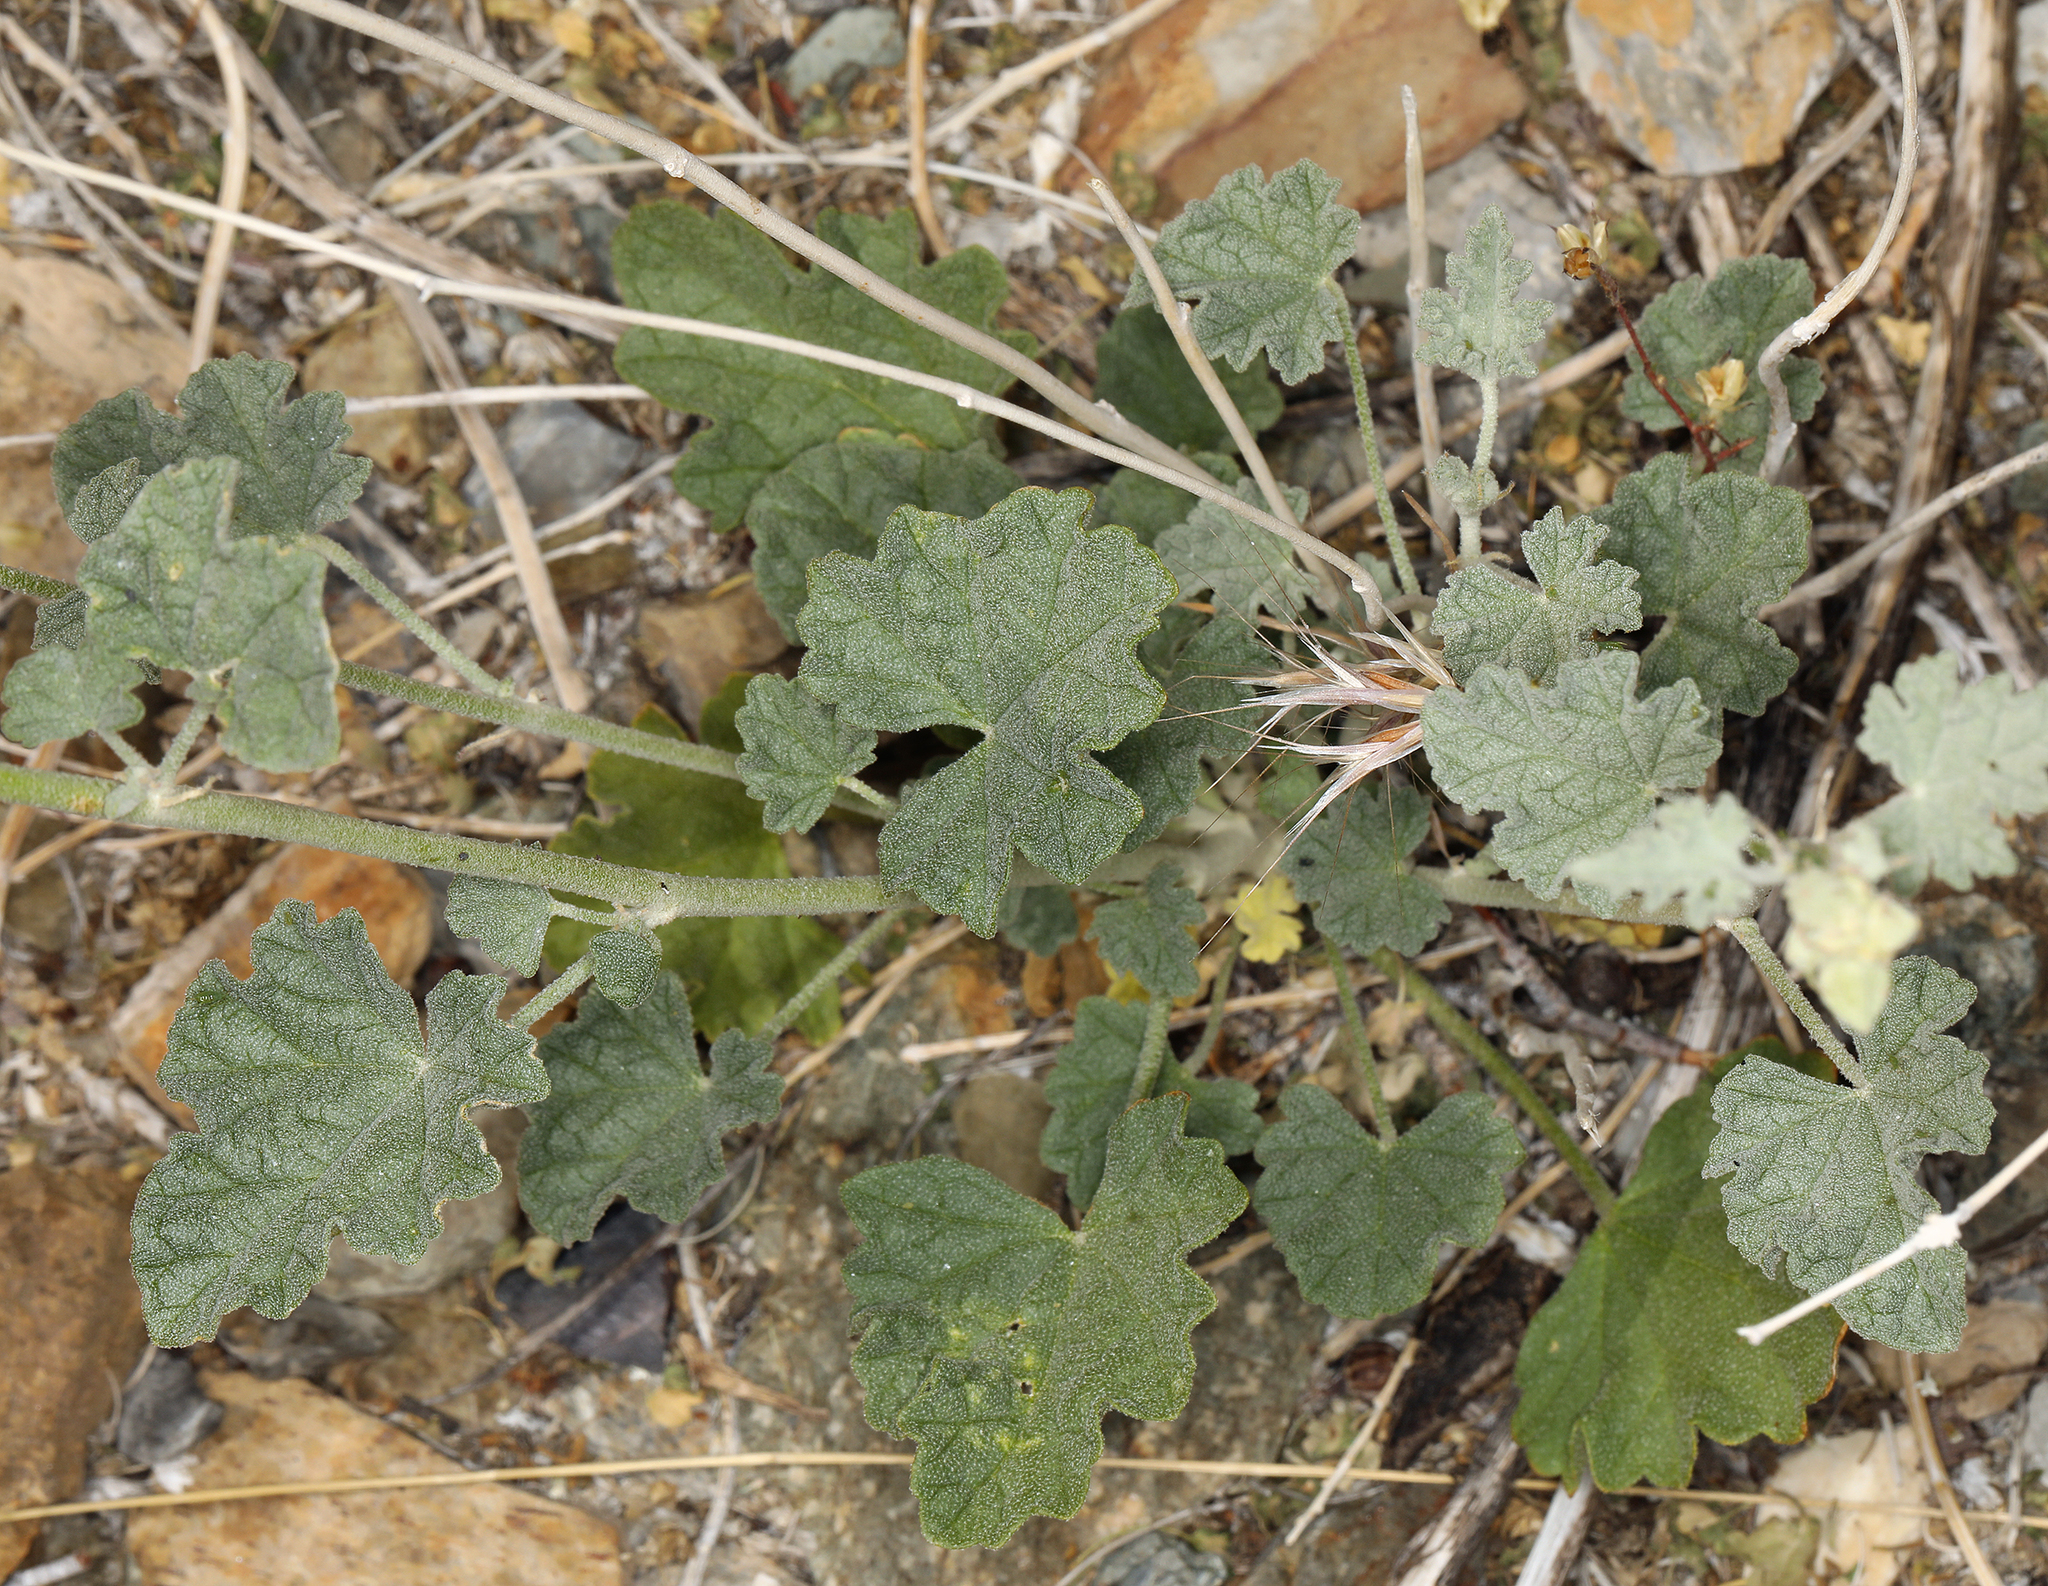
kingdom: Plantae
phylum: Tracheophyta
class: Magnoliopsida
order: Malvales
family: Malvaceae
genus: Sphaeralcea
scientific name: Sphaeralcea ambigua
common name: Apricot globe-mallow
